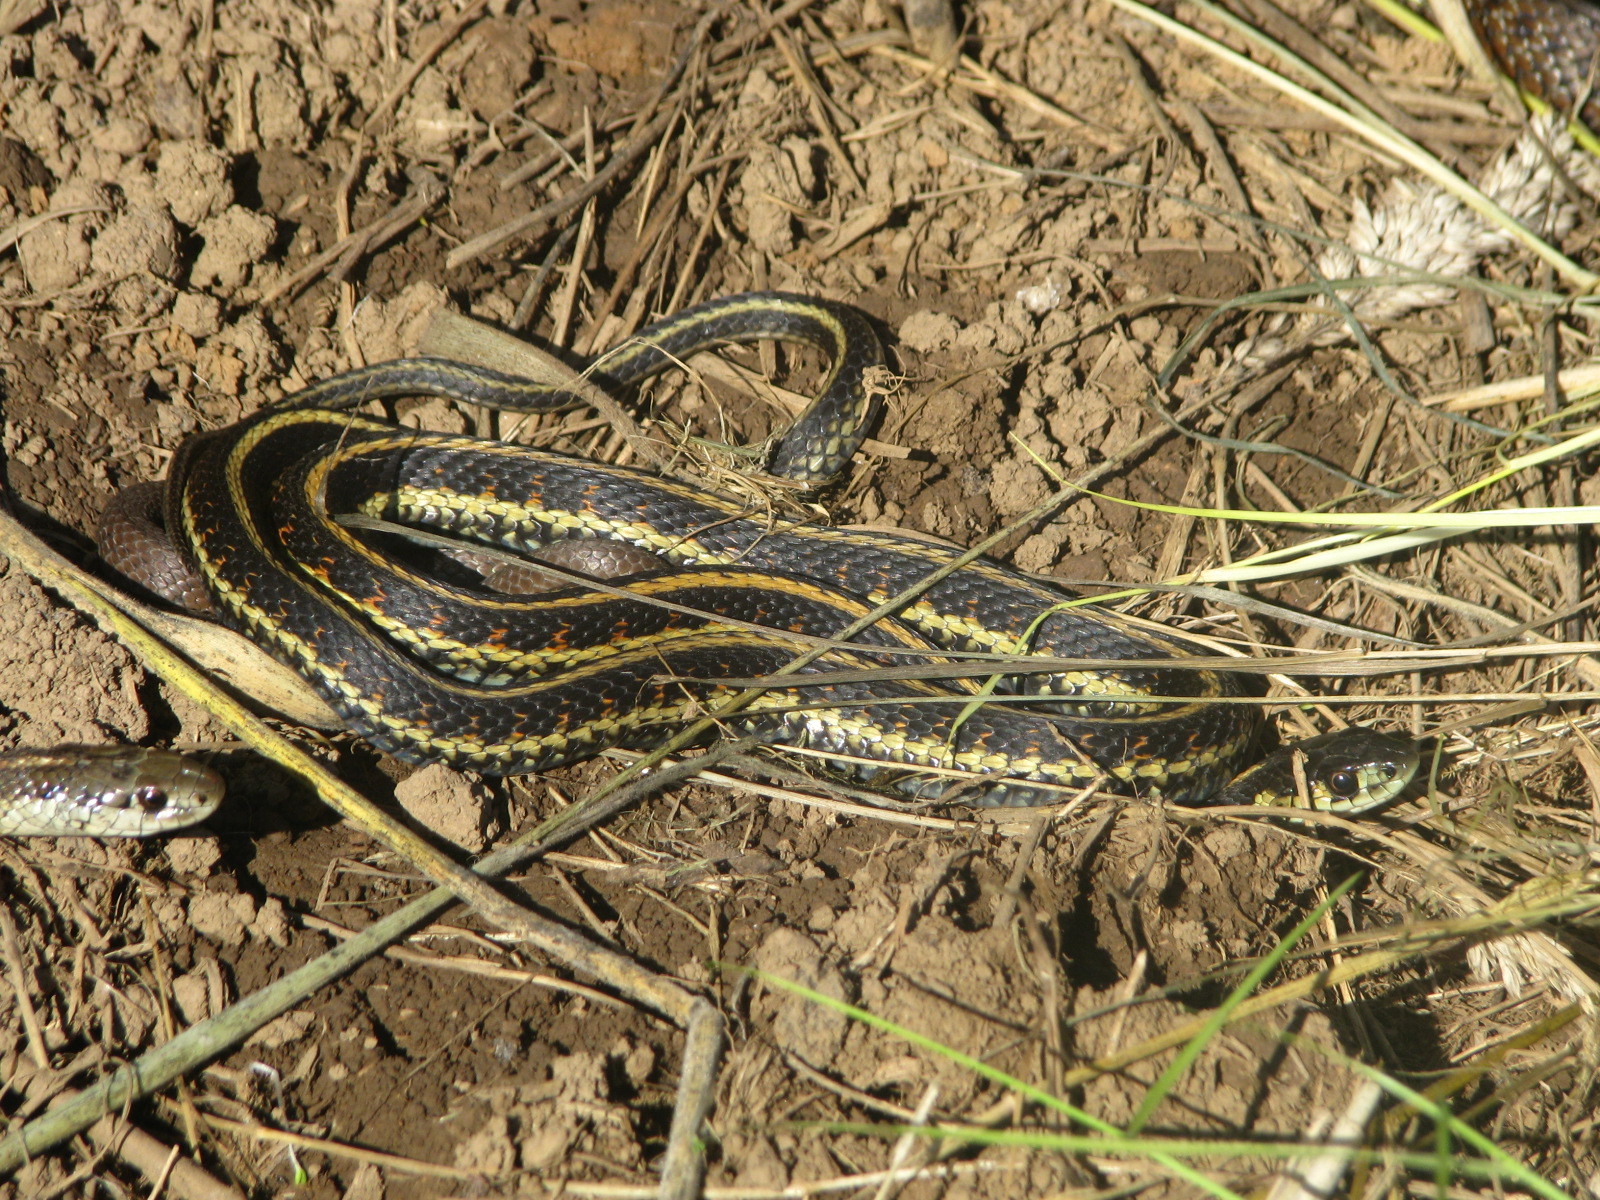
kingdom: Animalia
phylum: Chordata
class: Squamata
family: Colubridae
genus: Thamnophis
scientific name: Thamnophis sirtalis
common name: Common garter snake
